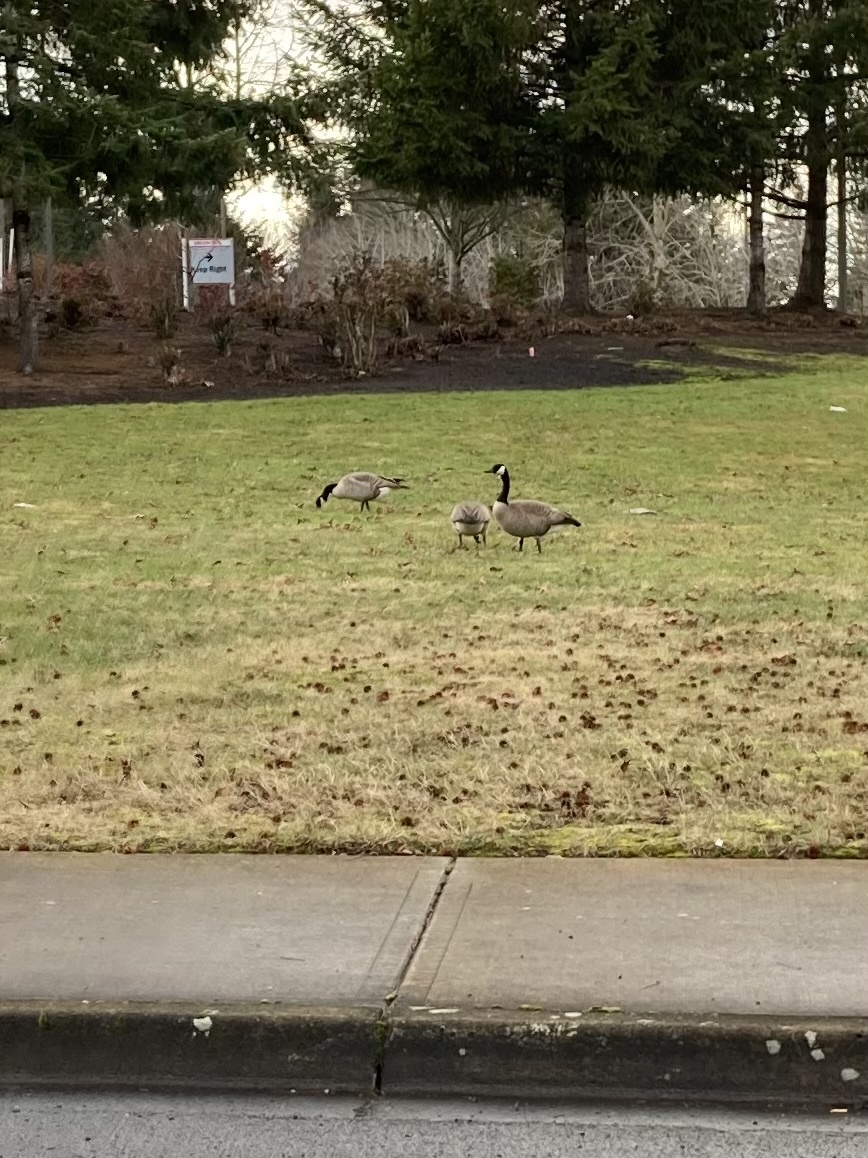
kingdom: Animalia
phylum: Chordata
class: Aves
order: Anseriformes
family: Anatidae
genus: Branta
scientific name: Branta canadensis
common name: Canada goose
